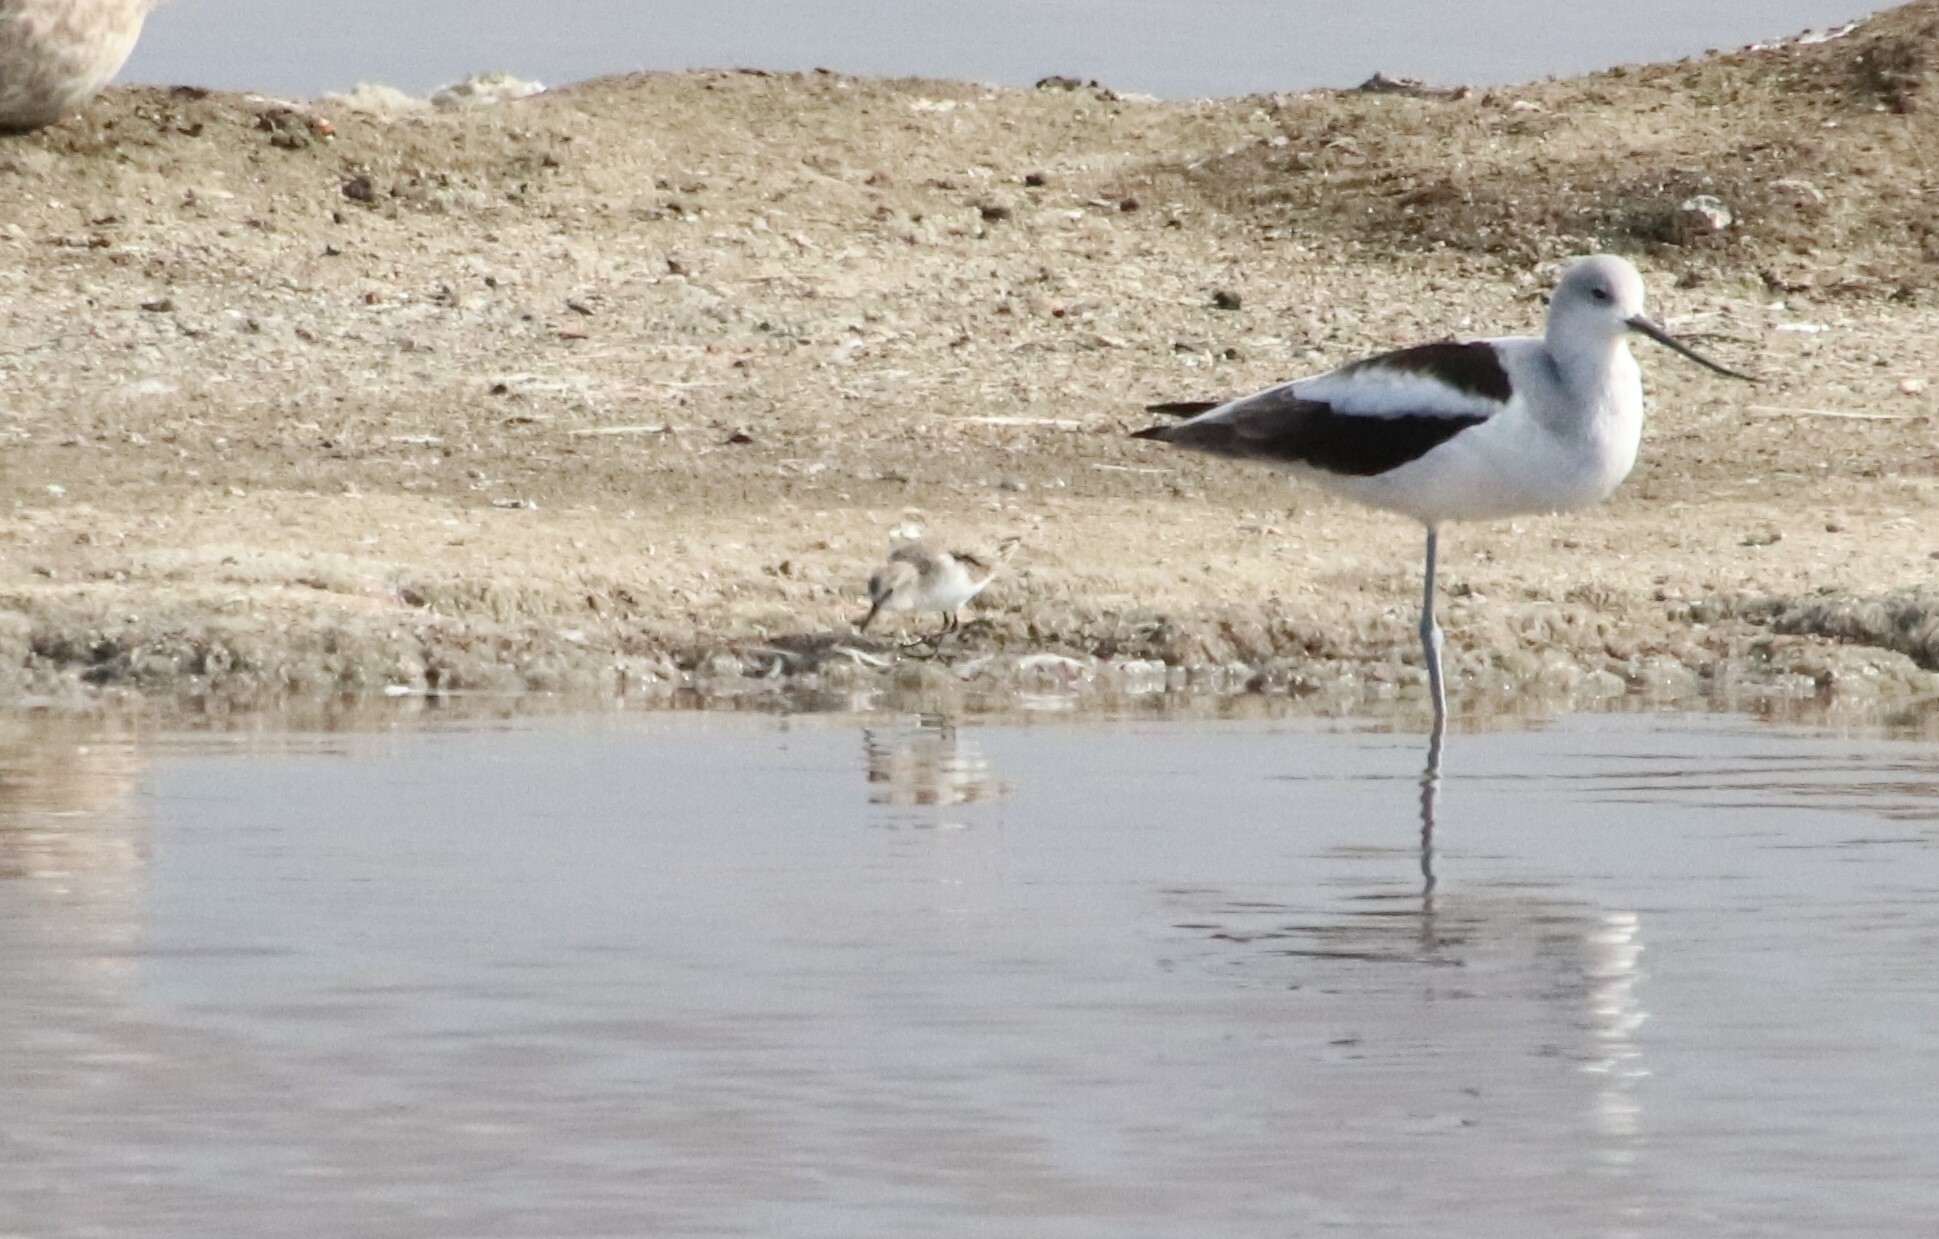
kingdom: Animalia
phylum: Chordata
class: Aves
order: Charadriiformes
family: Recurvirostridae
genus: Recurvirostra
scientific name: Recurvirostra americana
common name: American avocet
